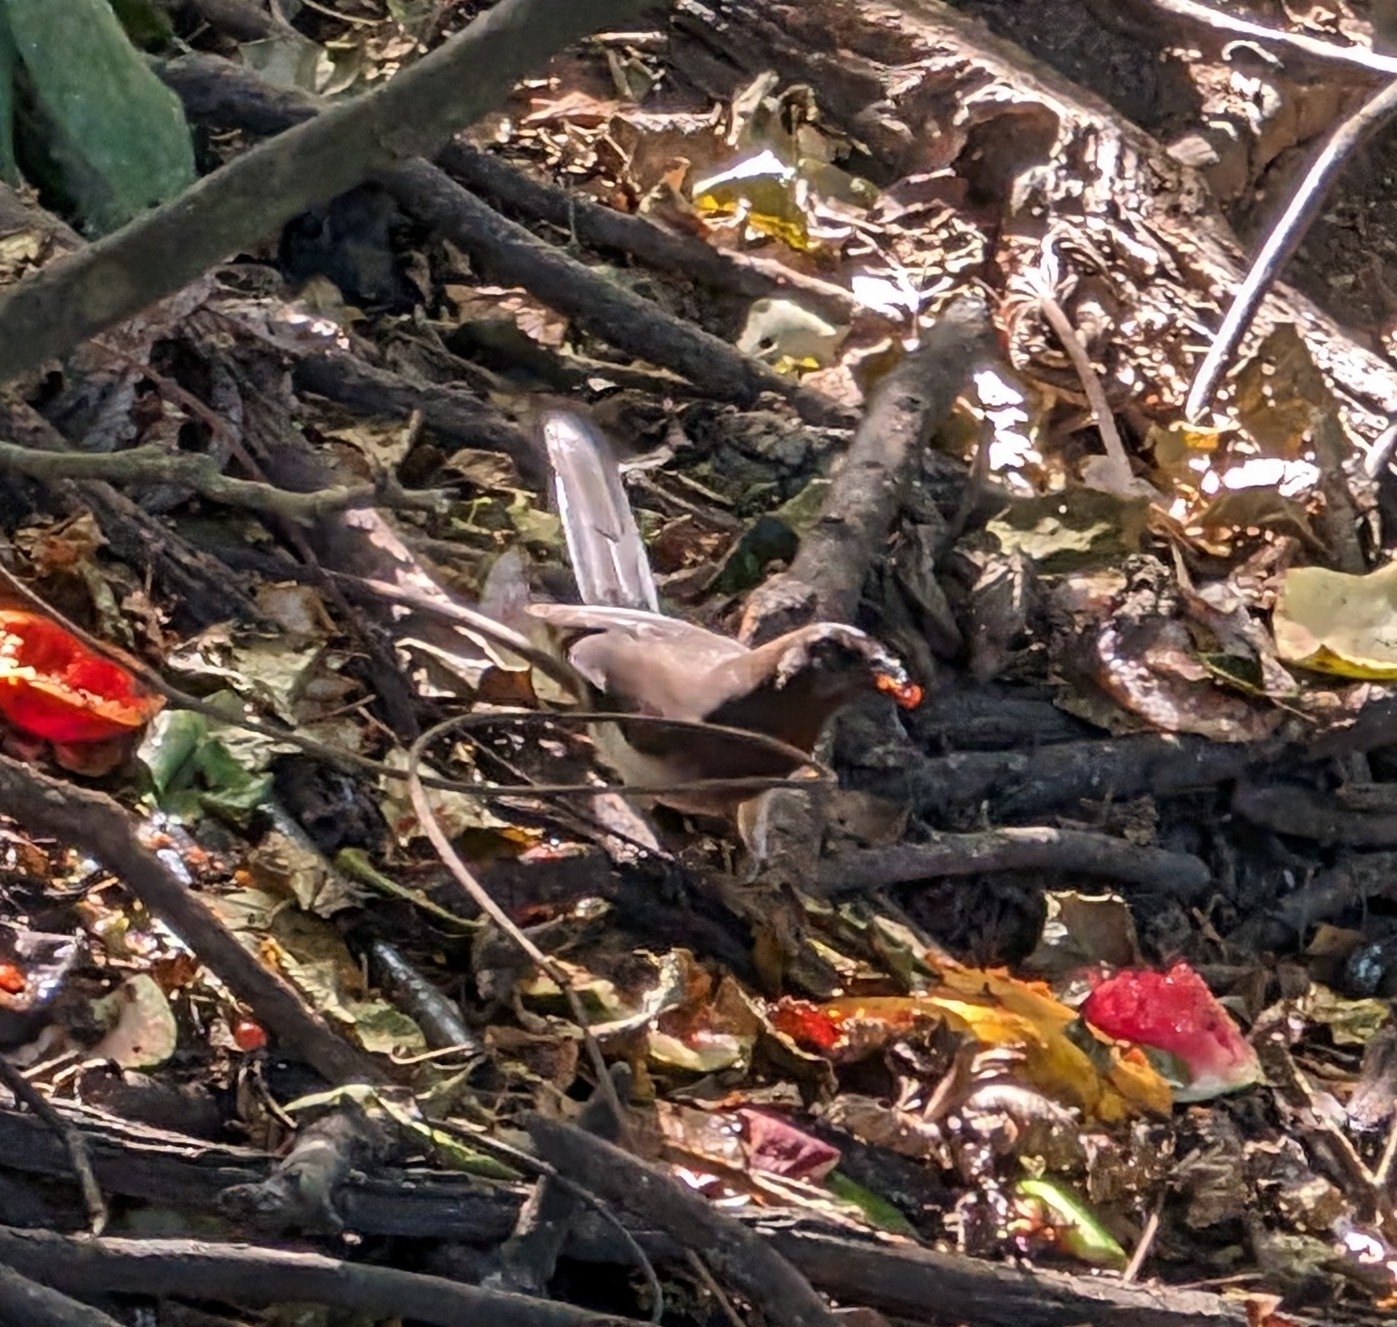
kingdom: Animalia
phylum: Chordata
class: Aves
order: Passeriformes
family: Corvidae
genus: Psilorhinus
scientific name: Psilorhinus morio
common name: Brown jay
